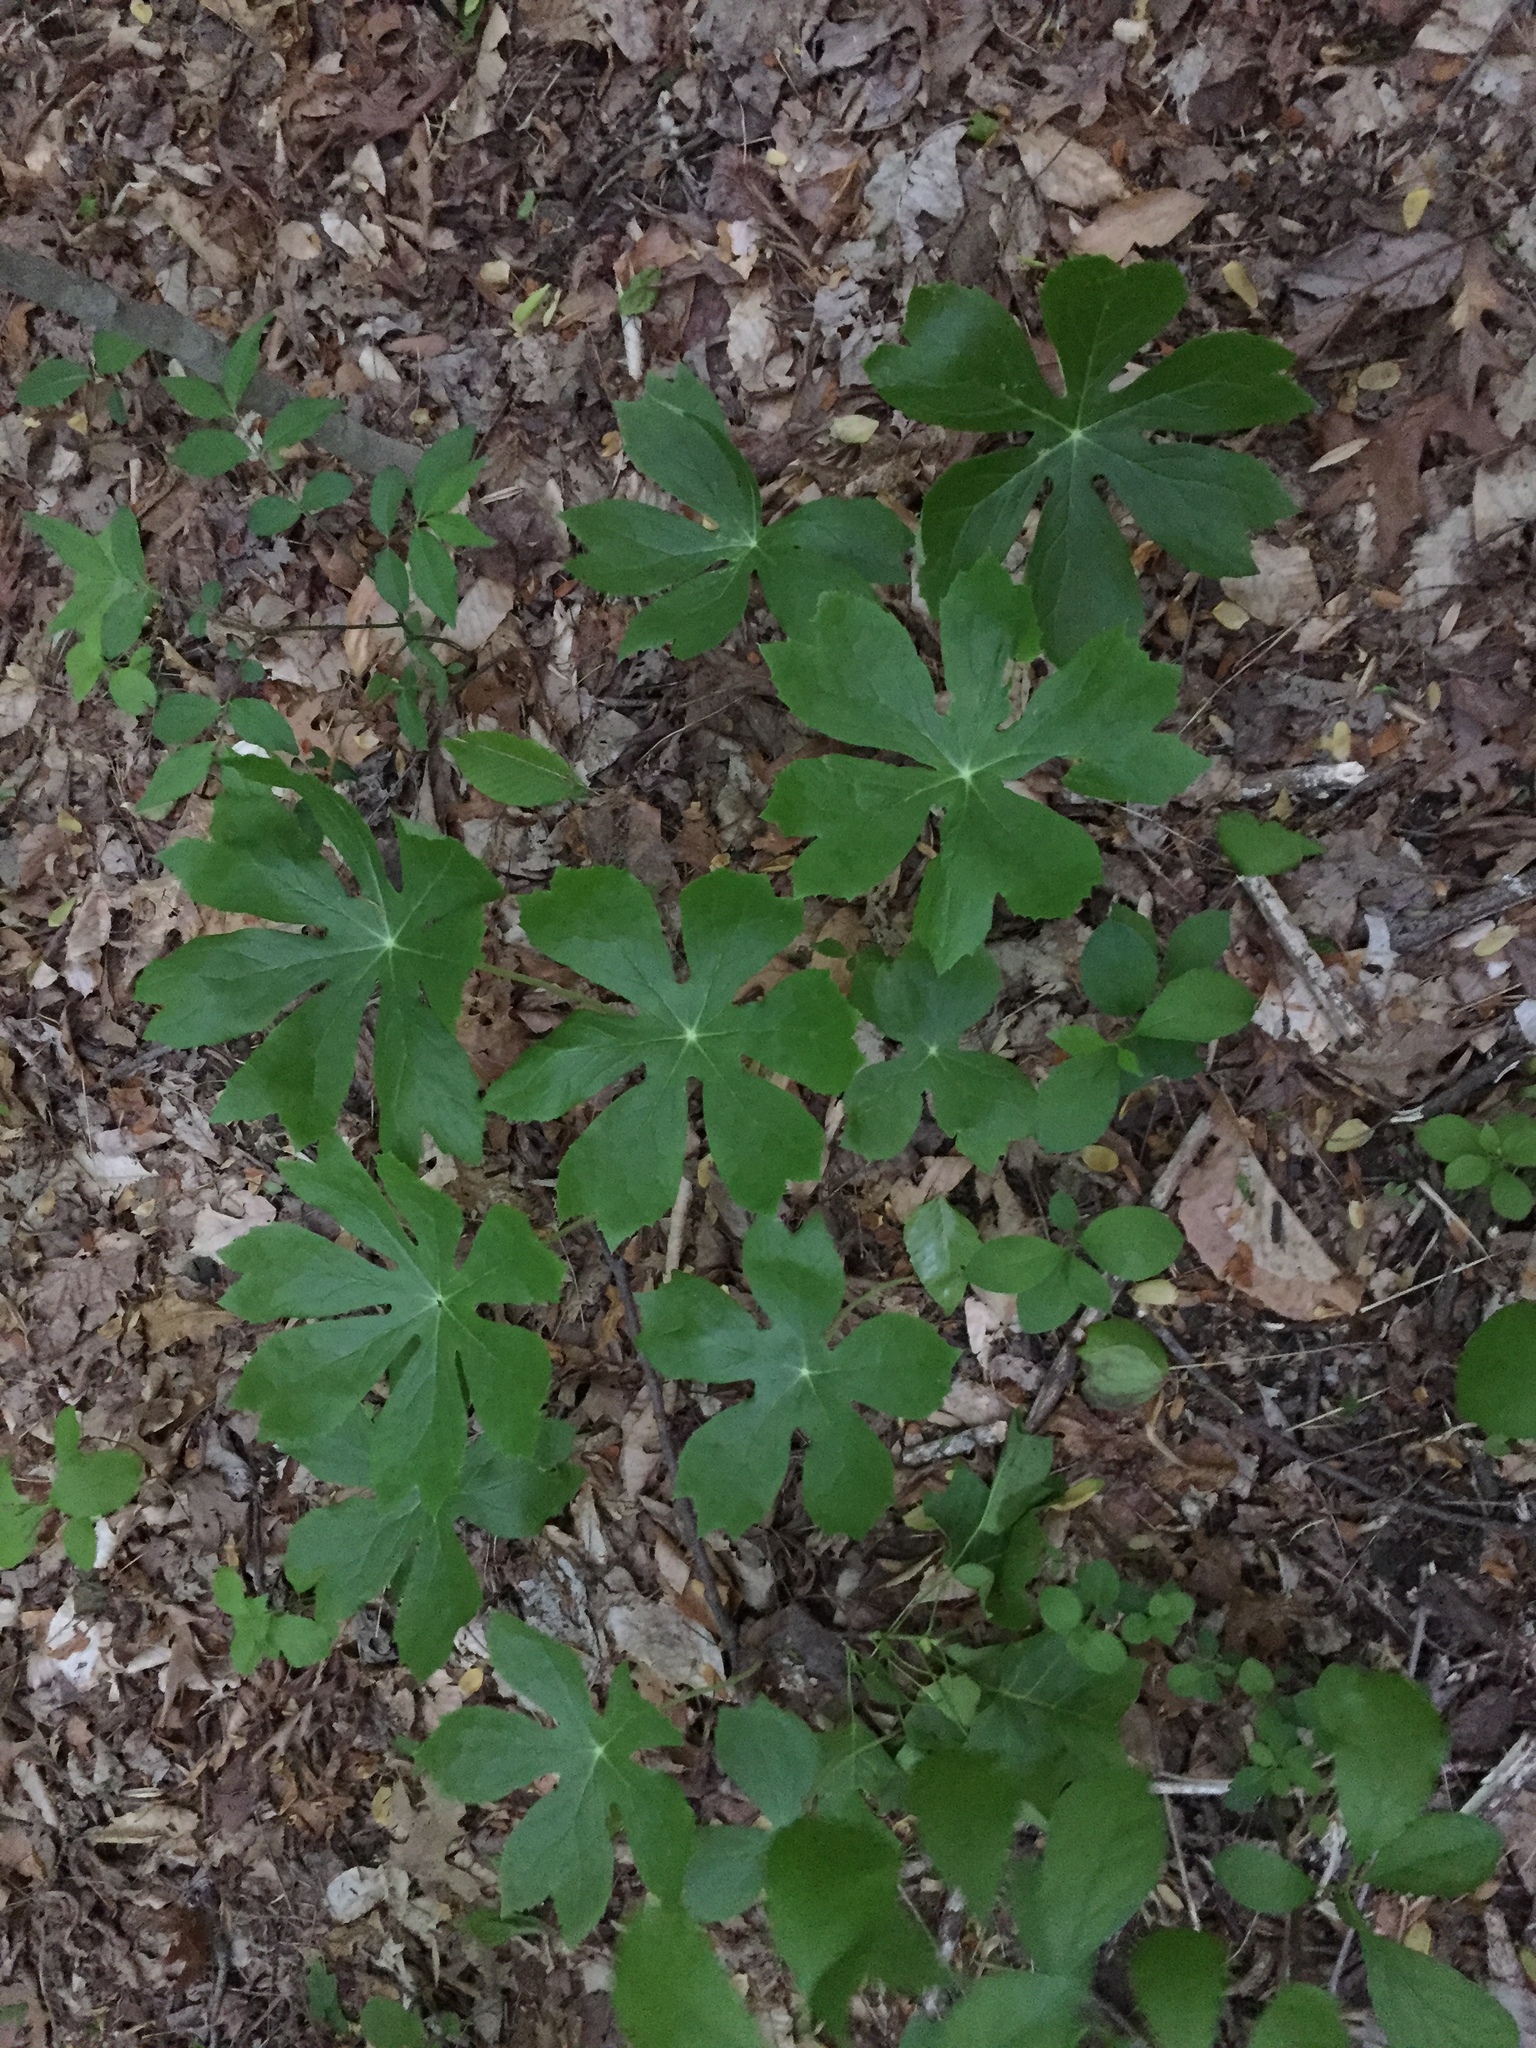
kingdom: Plantae
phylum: Tracheophyta
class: Magnoliopsida
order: Ranunculales
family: Berberidaceae
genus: Podophyllum
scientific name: Podophyllum peltatum
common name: Wild mandrake
